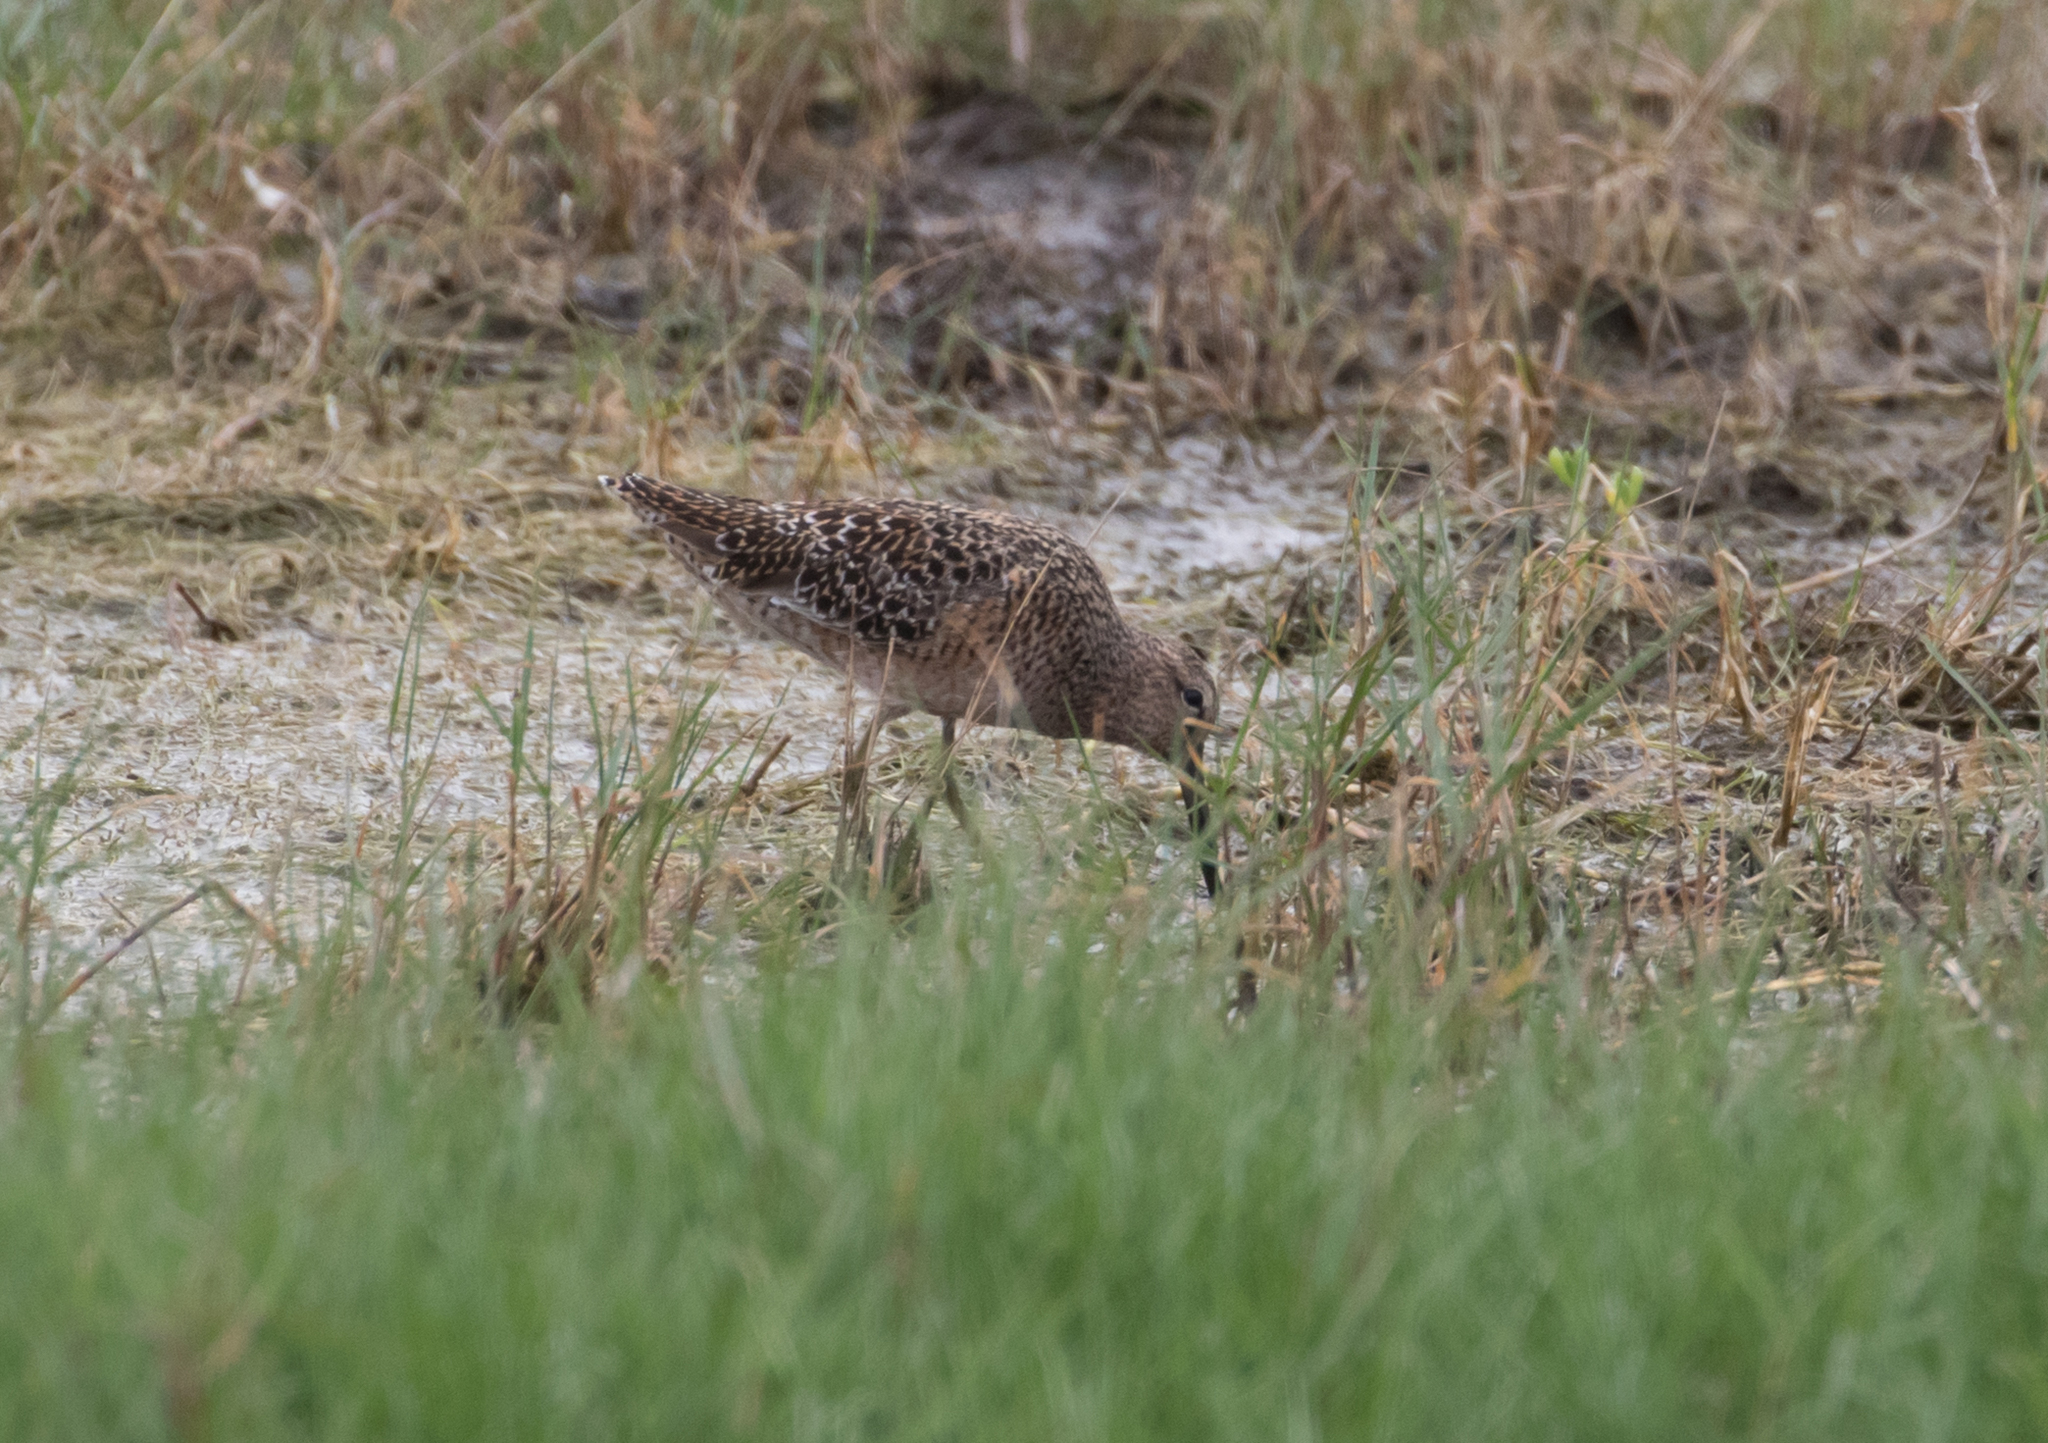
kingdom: Animalia
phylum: Chordata
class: Aves
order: Charadriiformes
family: Scolopacidae
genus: Limnodromus
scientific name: Limnodromus scolopaceus
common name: Long-billed dowitcher
